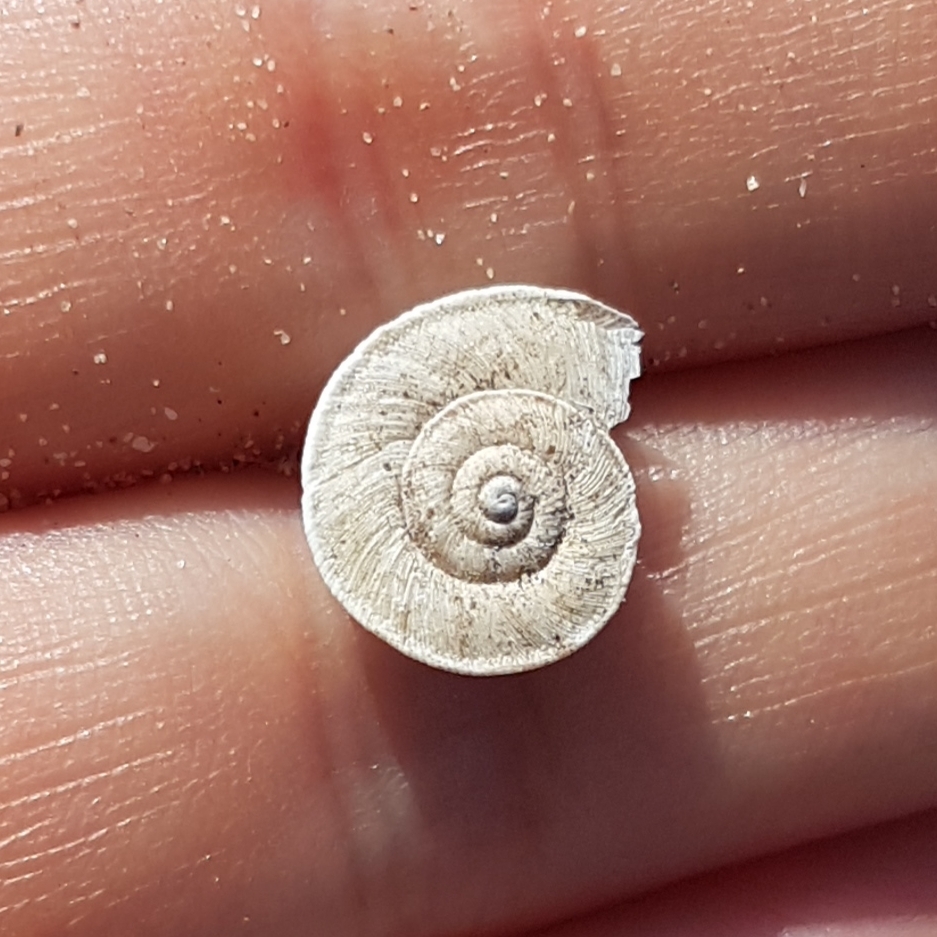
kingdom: Animalia
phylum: Mollusca
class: Gastropoda
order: Stylommatophora
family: Geomitridae
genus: Xerosecta
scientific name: Xerosecta explanata
